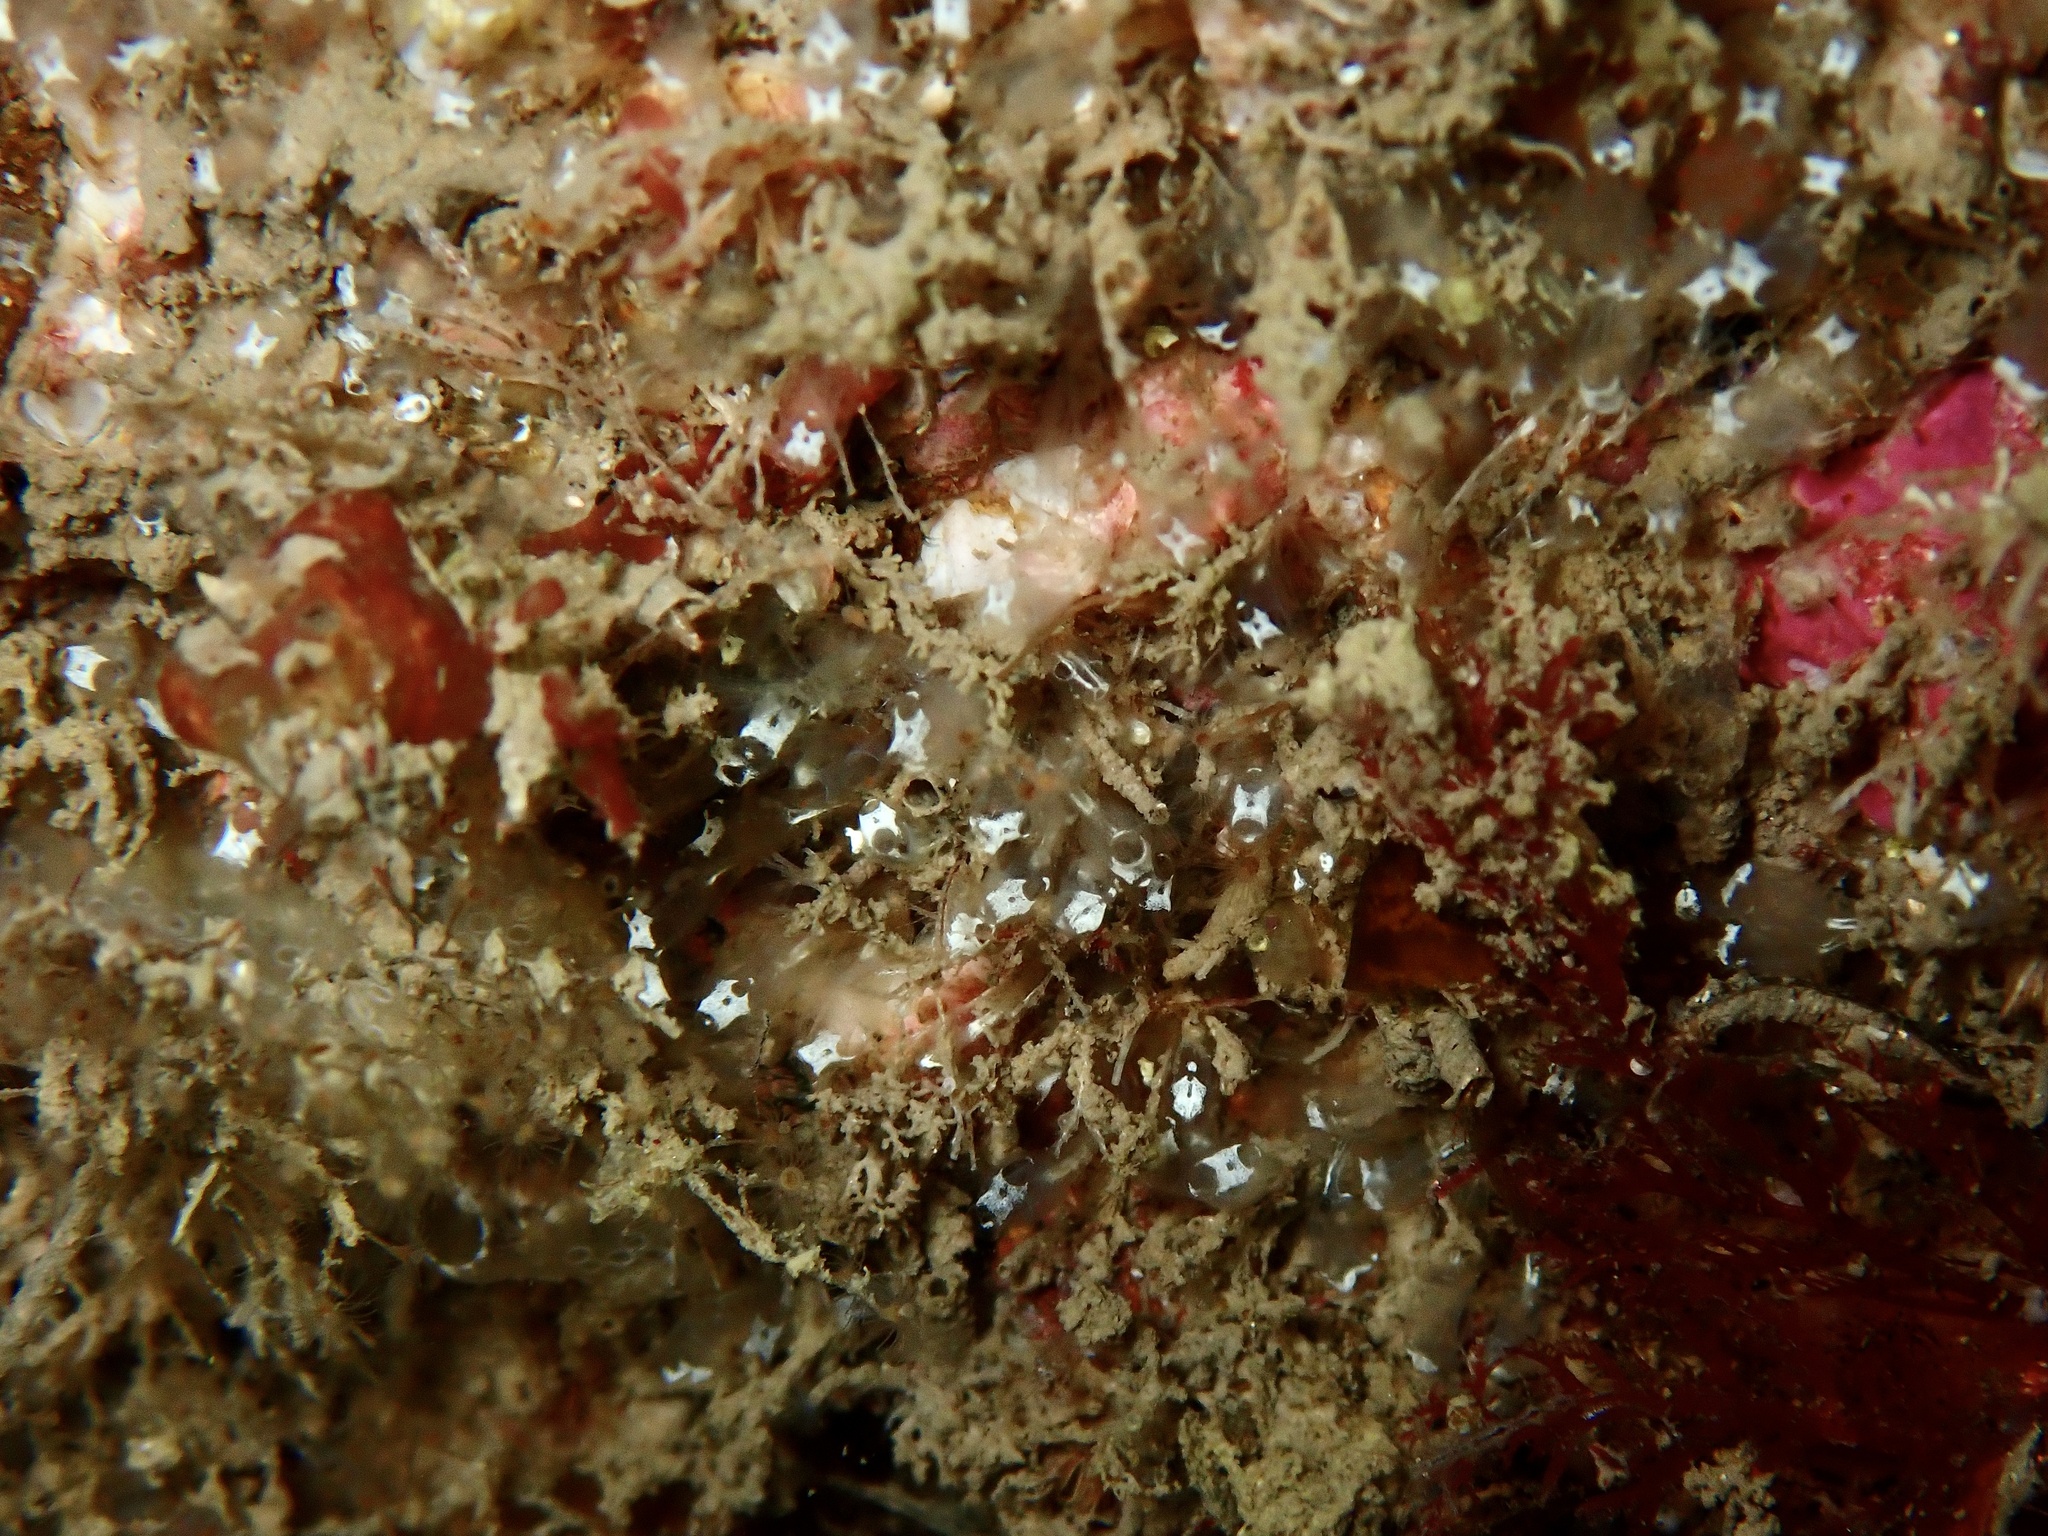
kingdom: Animalia
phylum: Chordata
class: Ascidiacea
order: Aplousobranchia
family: Clavelinidae
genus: Pycnoclavella
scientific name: Pycnoclavella stolonialis
